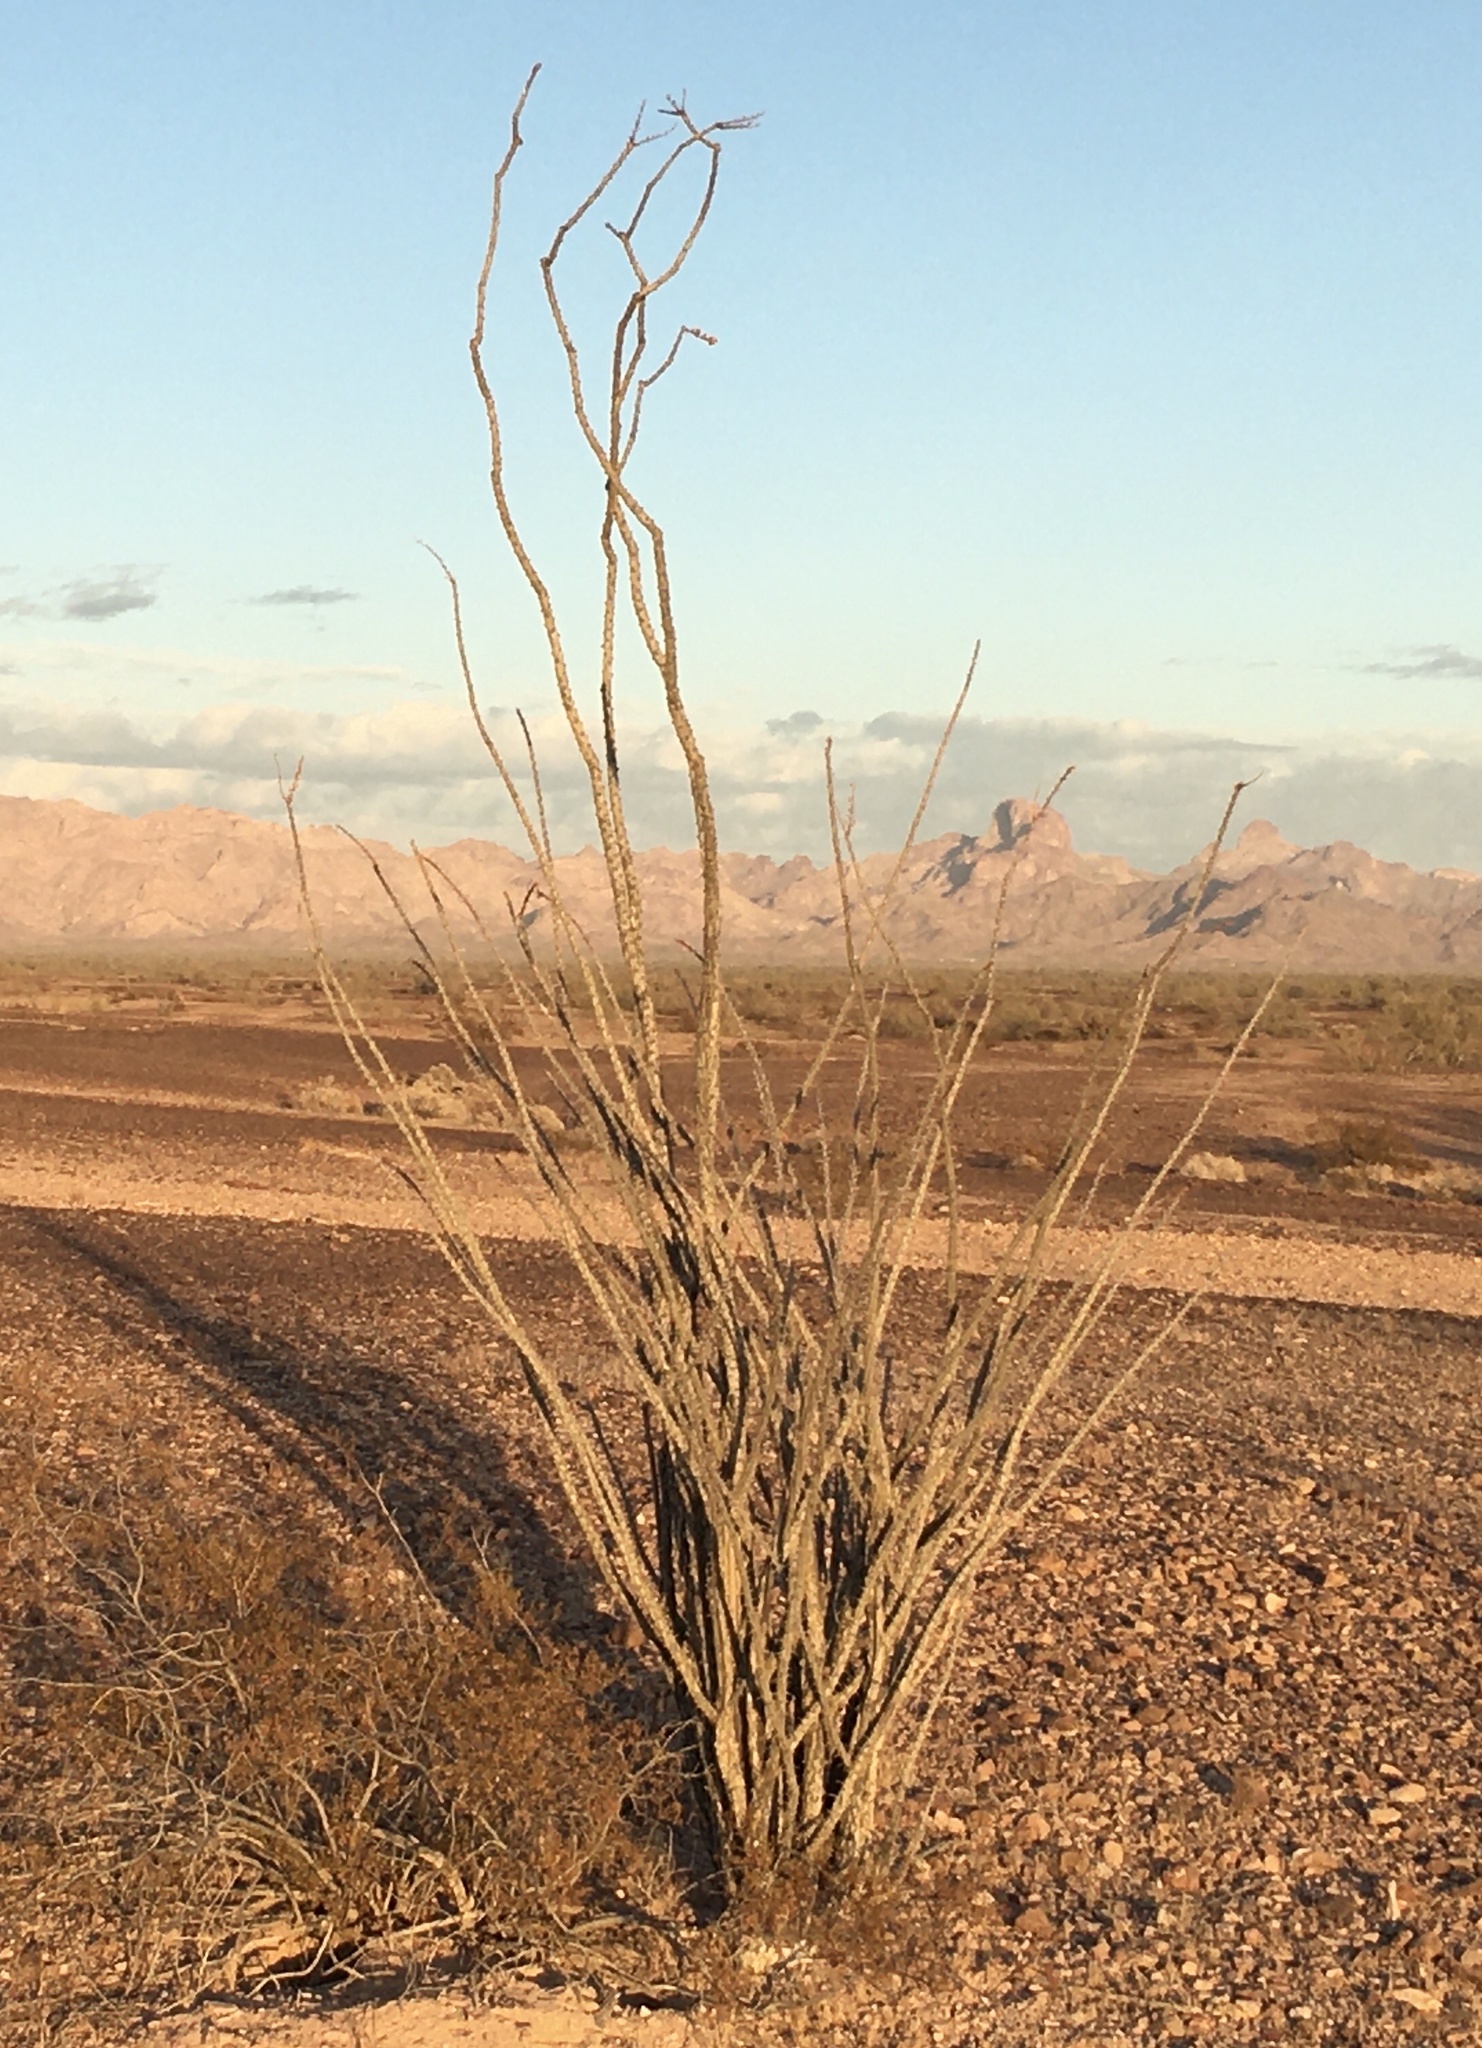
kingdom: Plantae
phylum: Tracheophyta
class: Magnoliopsida
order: Ericales
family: Fouquieriaceae
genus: Fouquieria
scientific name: Fouquieria splendens
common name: Vine-cactus
